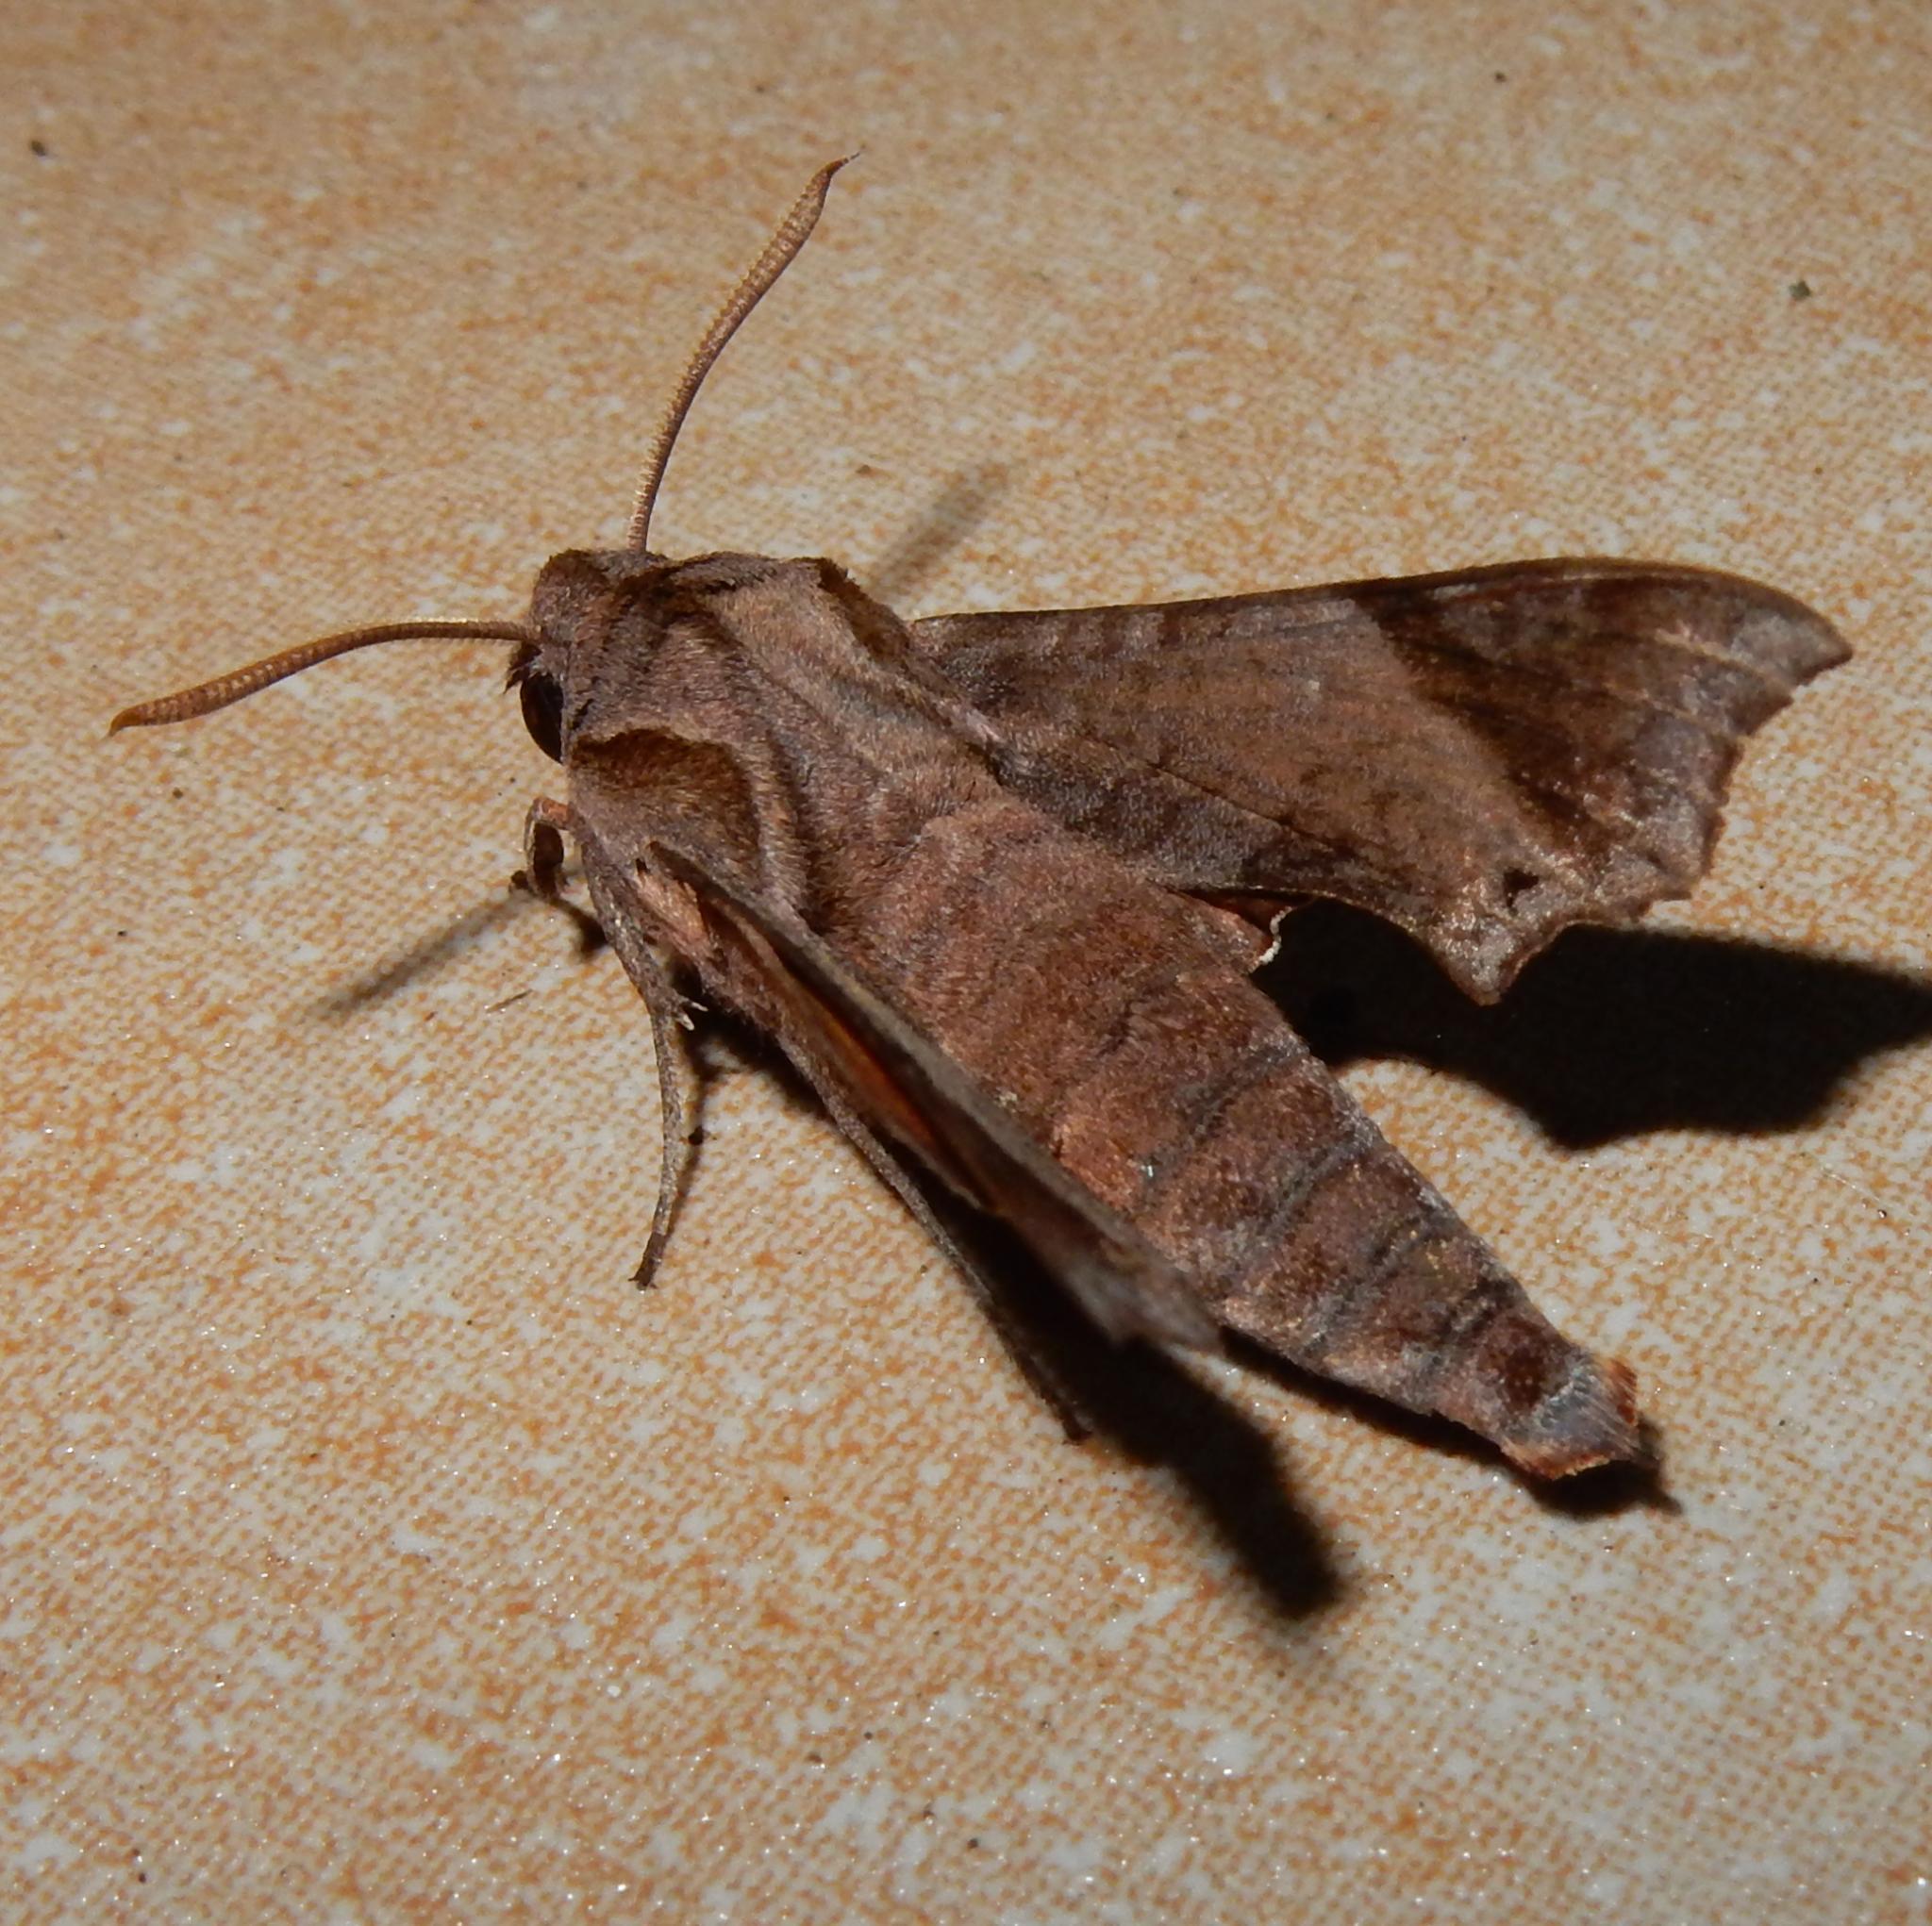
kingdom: Animalia
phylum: Arthropoda
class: Insecta
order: Lepidoptera
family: Sphingidae
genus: Temnora
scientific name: Temnora pylades
